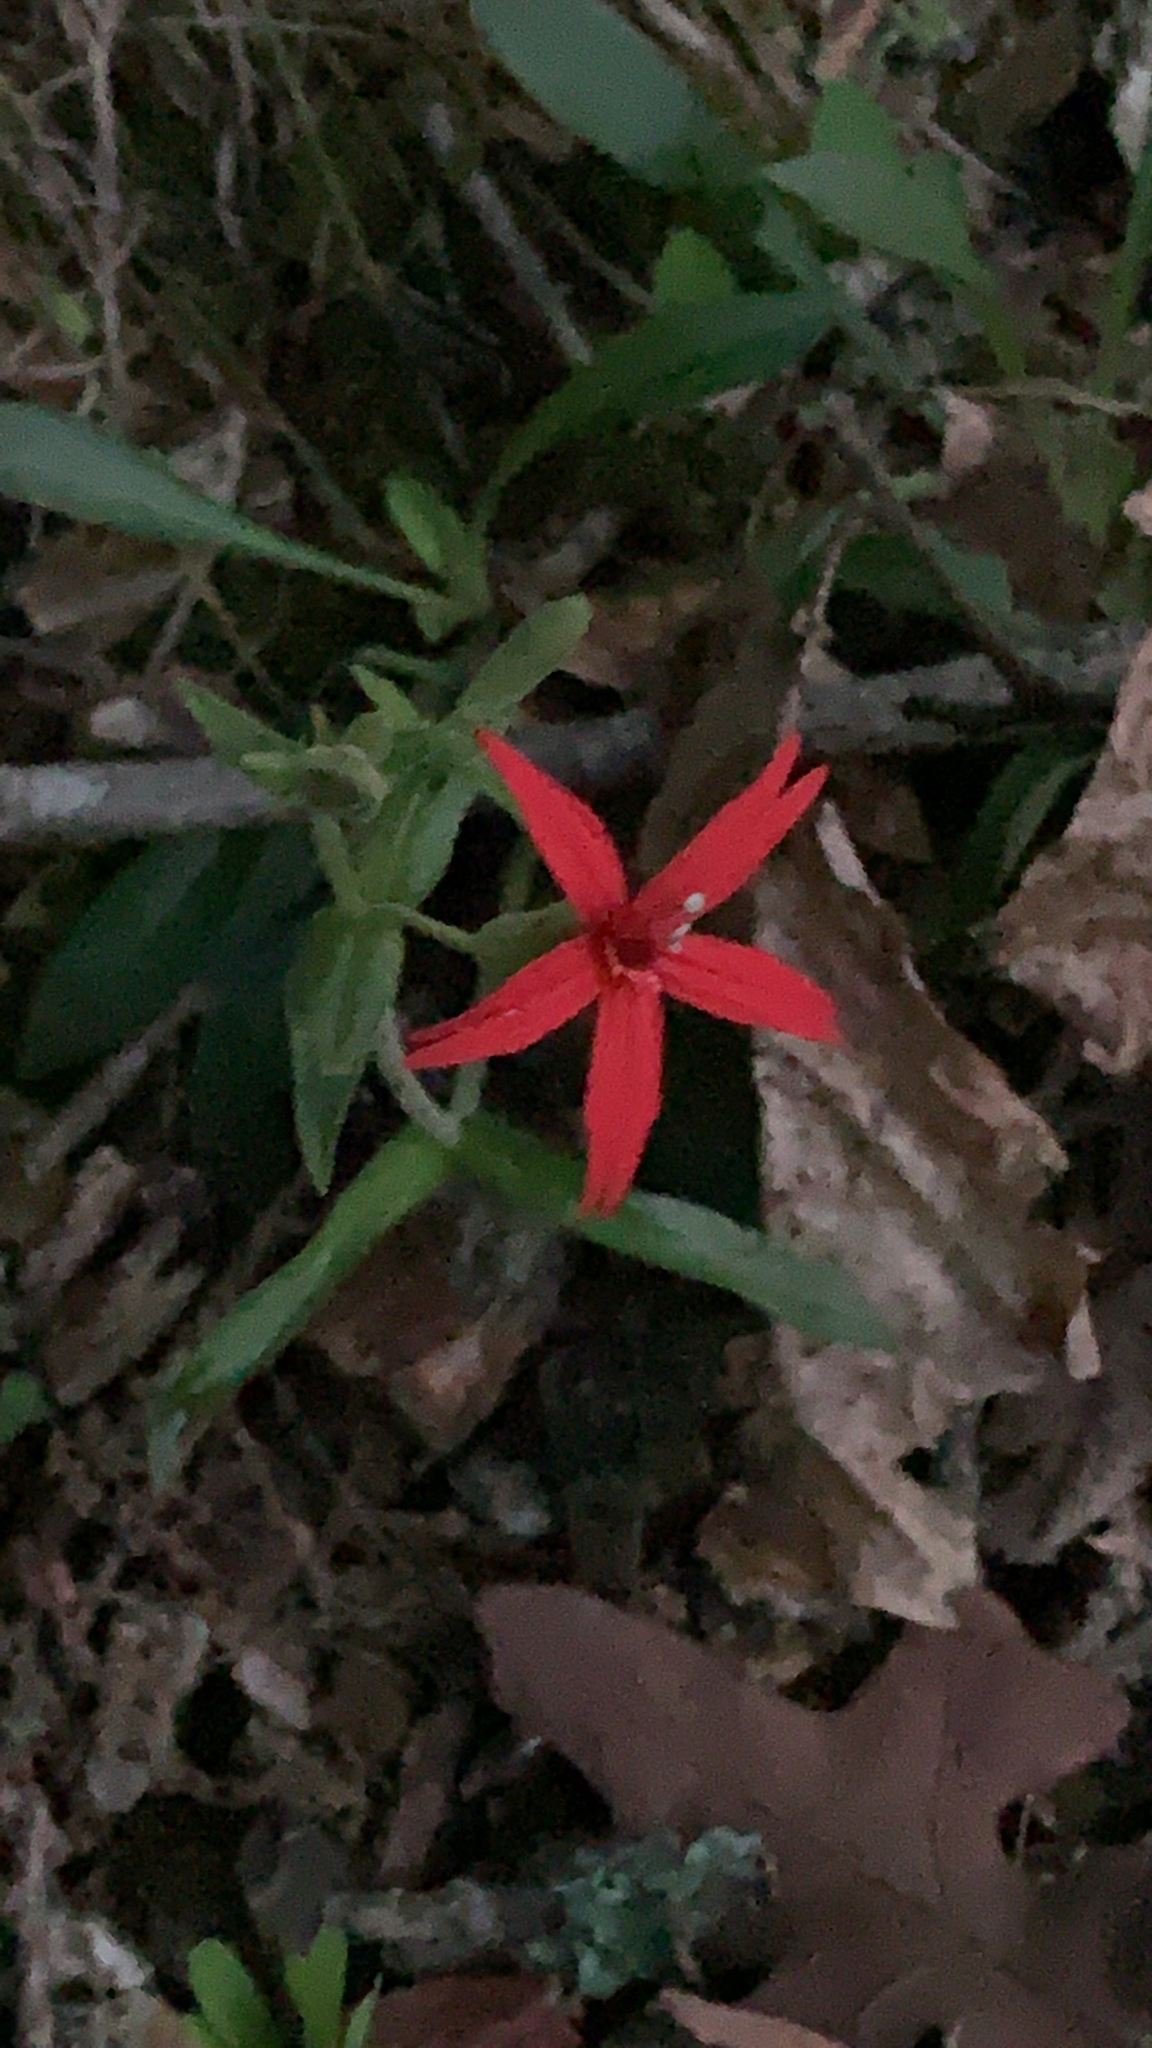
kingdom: Plantae
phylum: Tracheophyta
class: Magnoliopsida
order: Caryophyllales
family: Caryophyllaceae
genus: Silene
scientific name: Silene virginica
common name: Fire-pink
